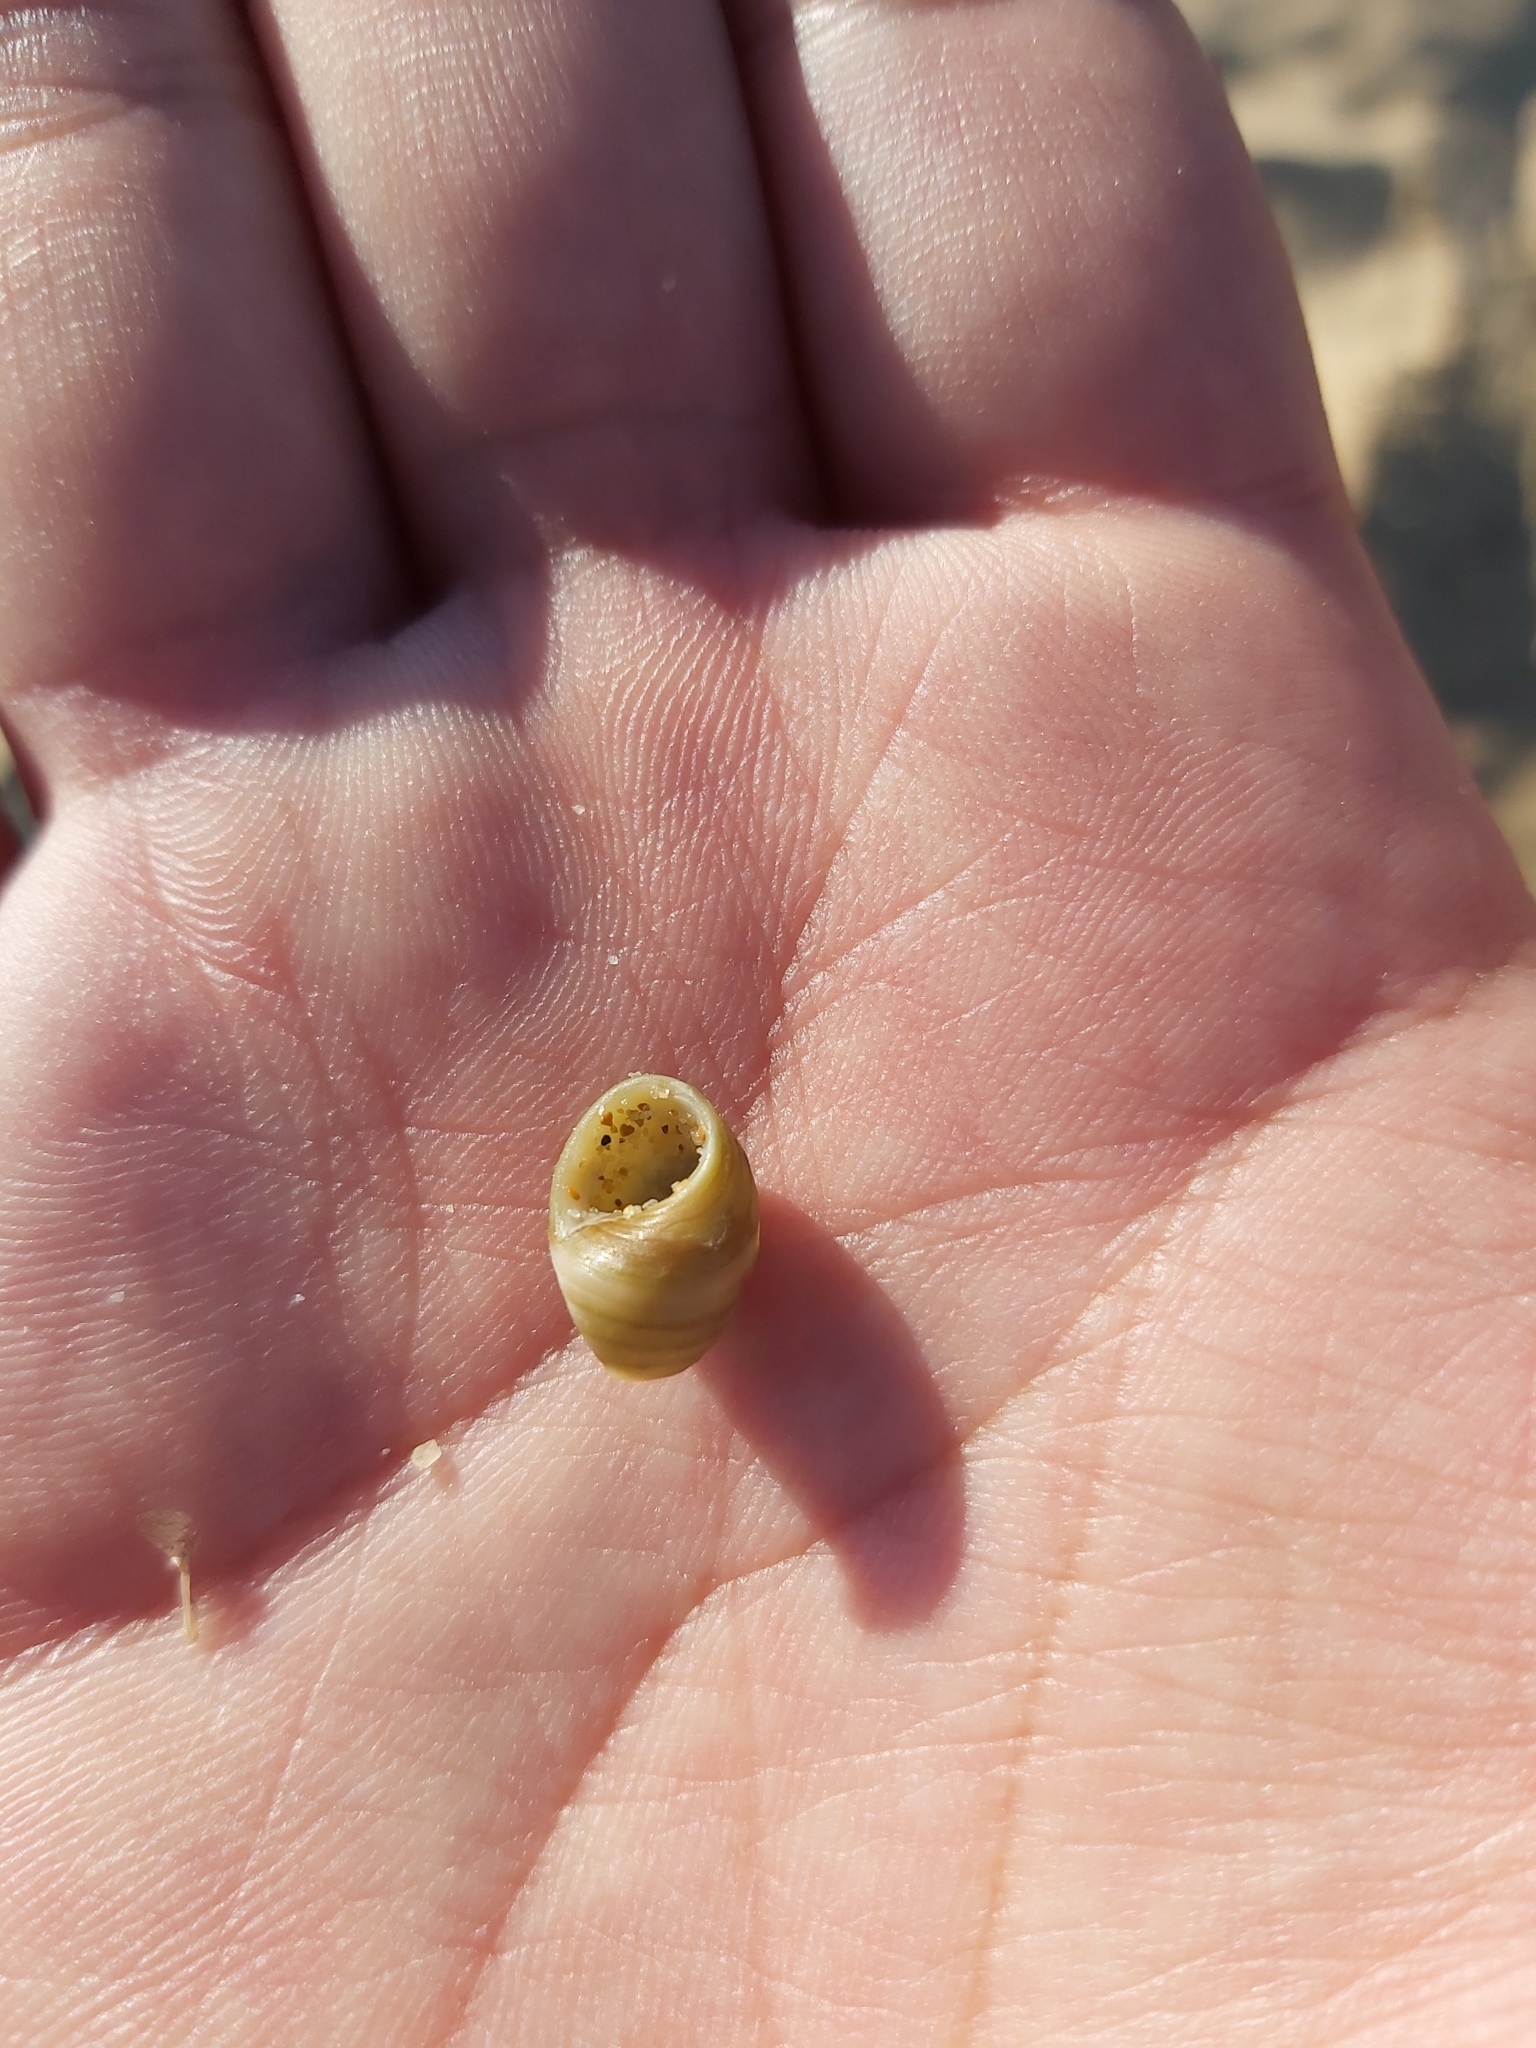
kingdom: Animalia
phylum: Mollusca
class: Gastropoda
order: Trochida
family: Trochidae
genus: Phasianotrochus
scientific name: Phasianotrochus eximius
